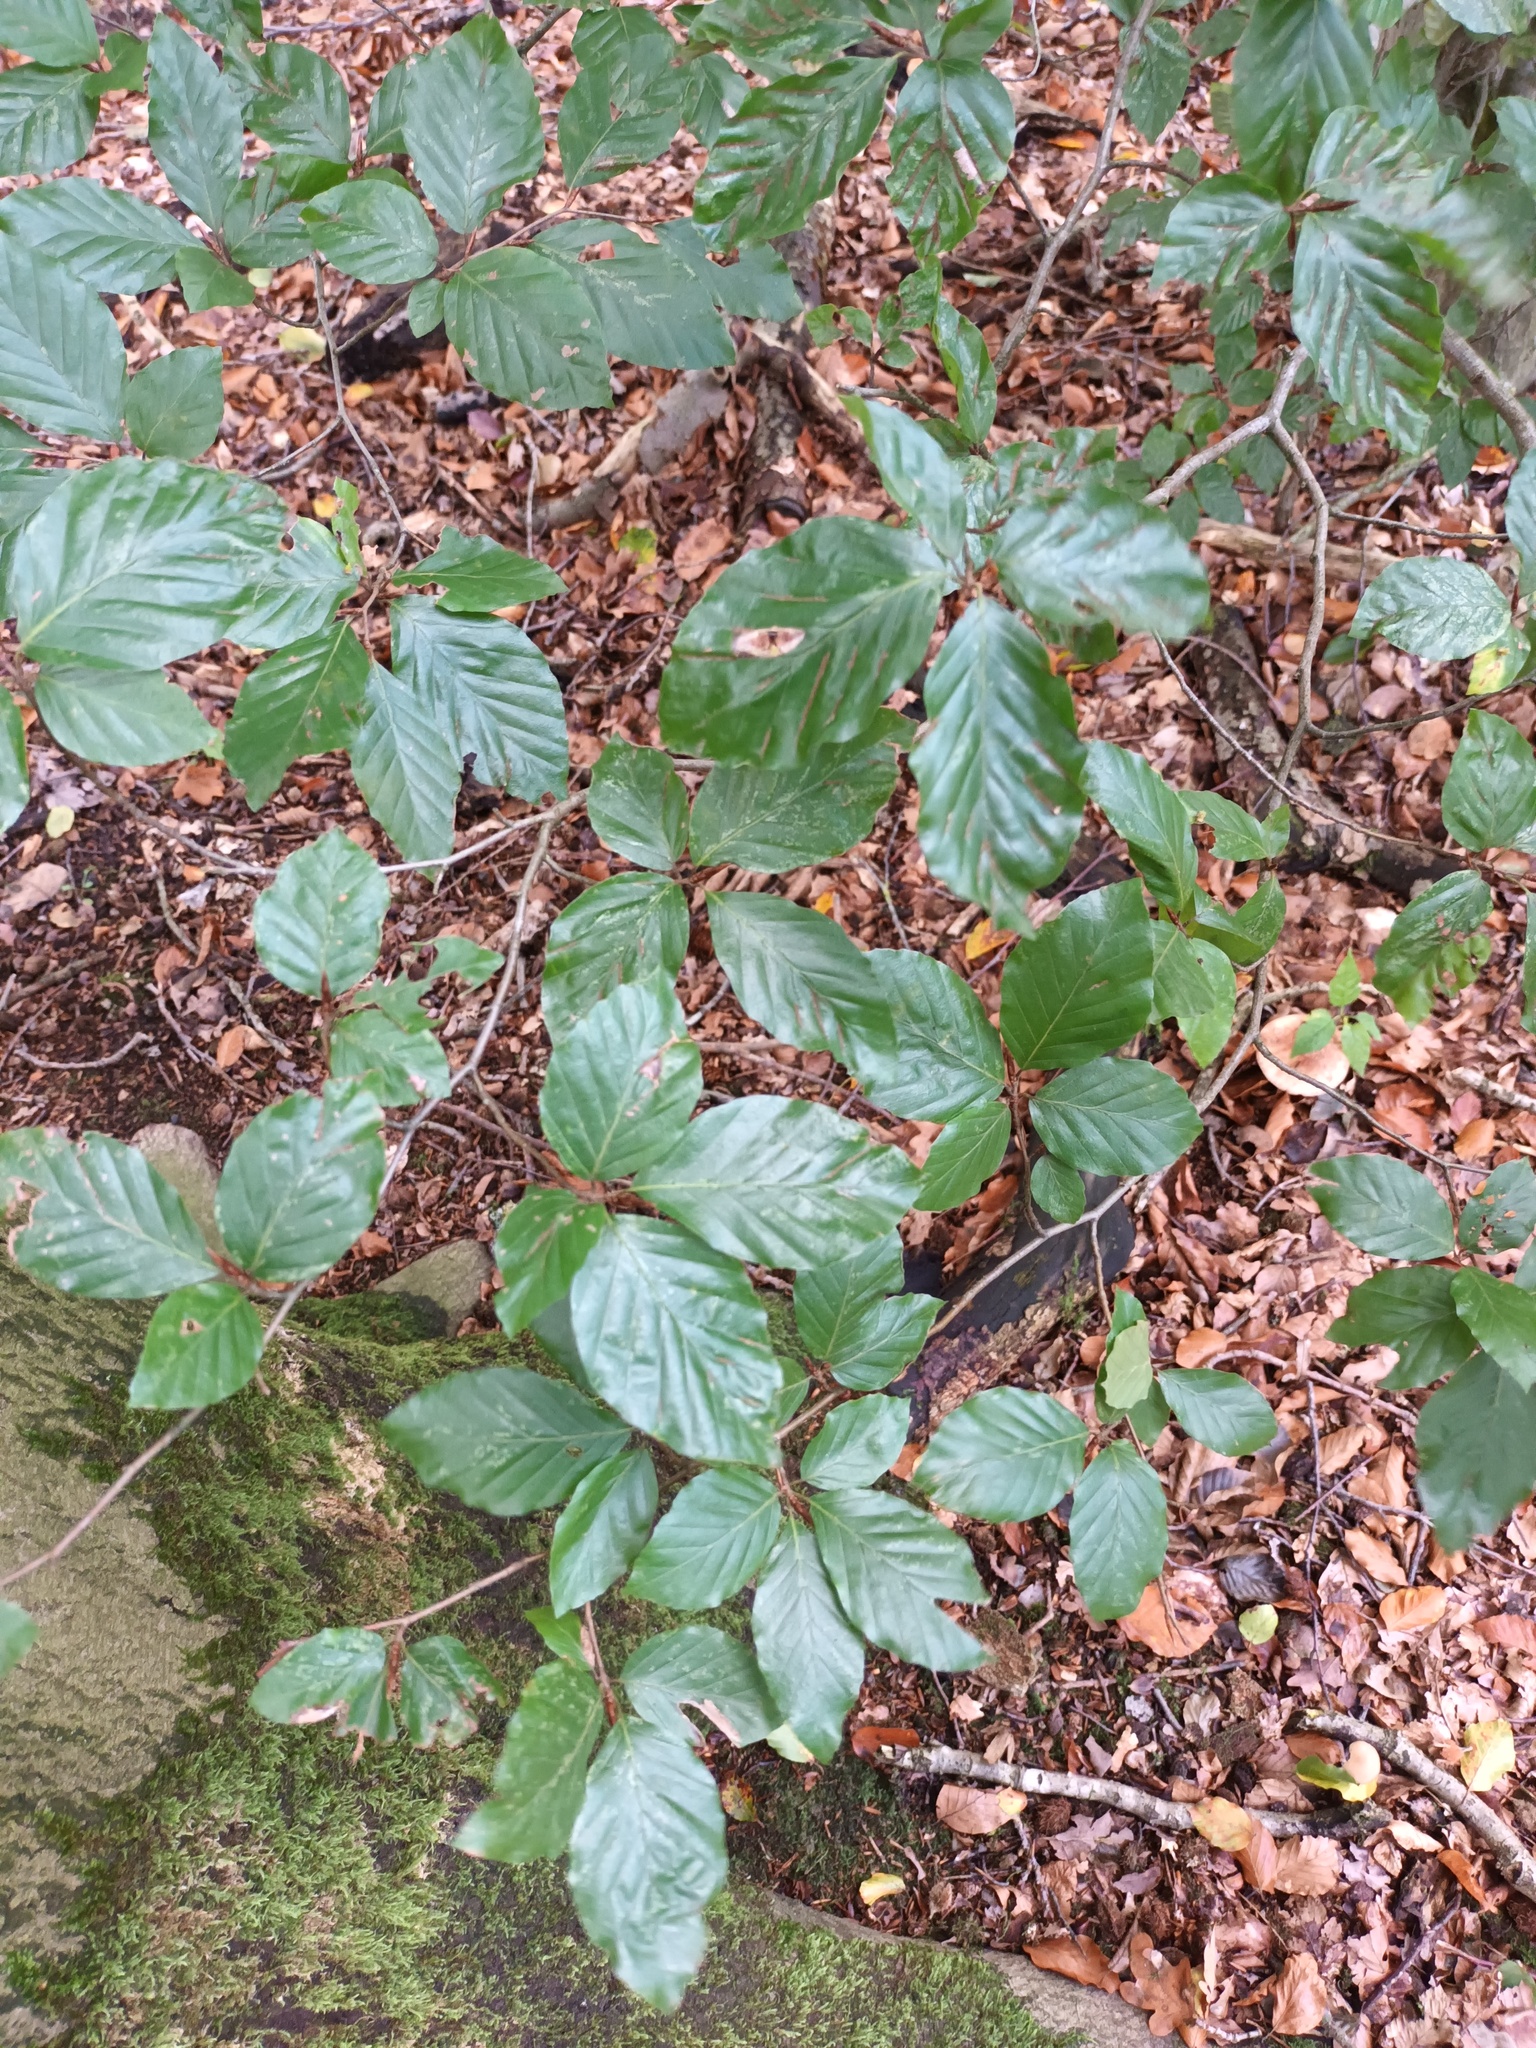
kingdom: Plantae
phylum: Tracheophyta
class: Magnoliopsida
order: Fagales
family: Fagaceae
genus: Fagus
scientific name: Fagus sylvatica
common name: Beech
